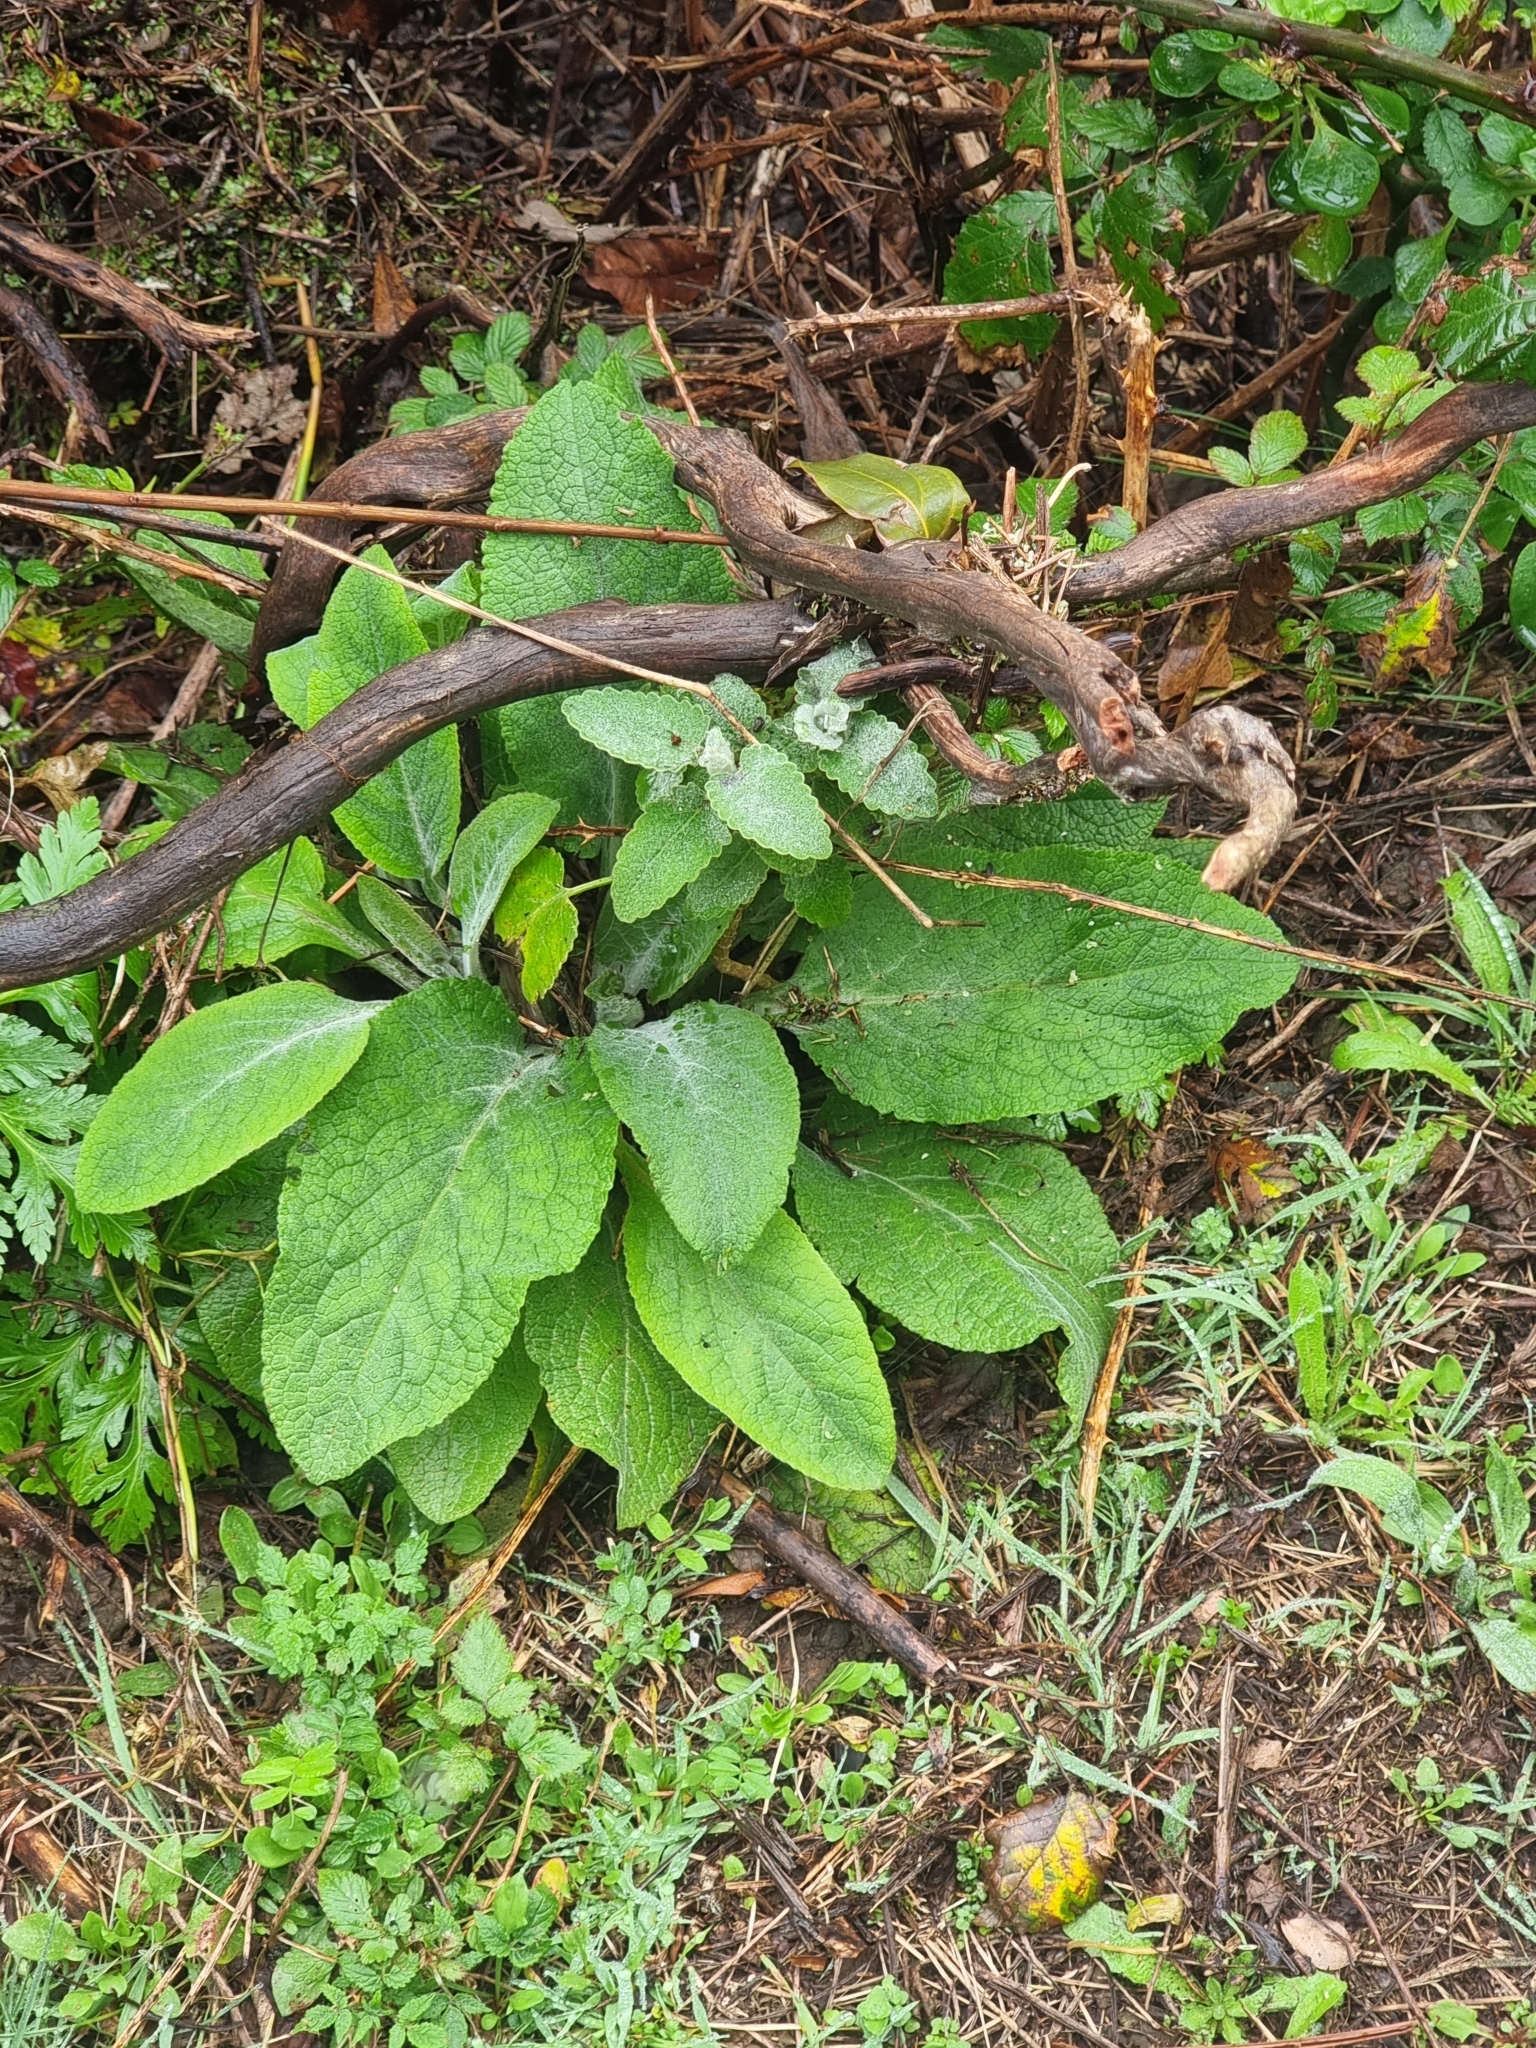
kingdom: Plantae
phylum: Tracheophyta
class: Magnoliopsida
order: Lamiales
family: Plantaginaceae
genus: Digitalis
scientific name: Digitalis purpurea
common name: Foxglove
